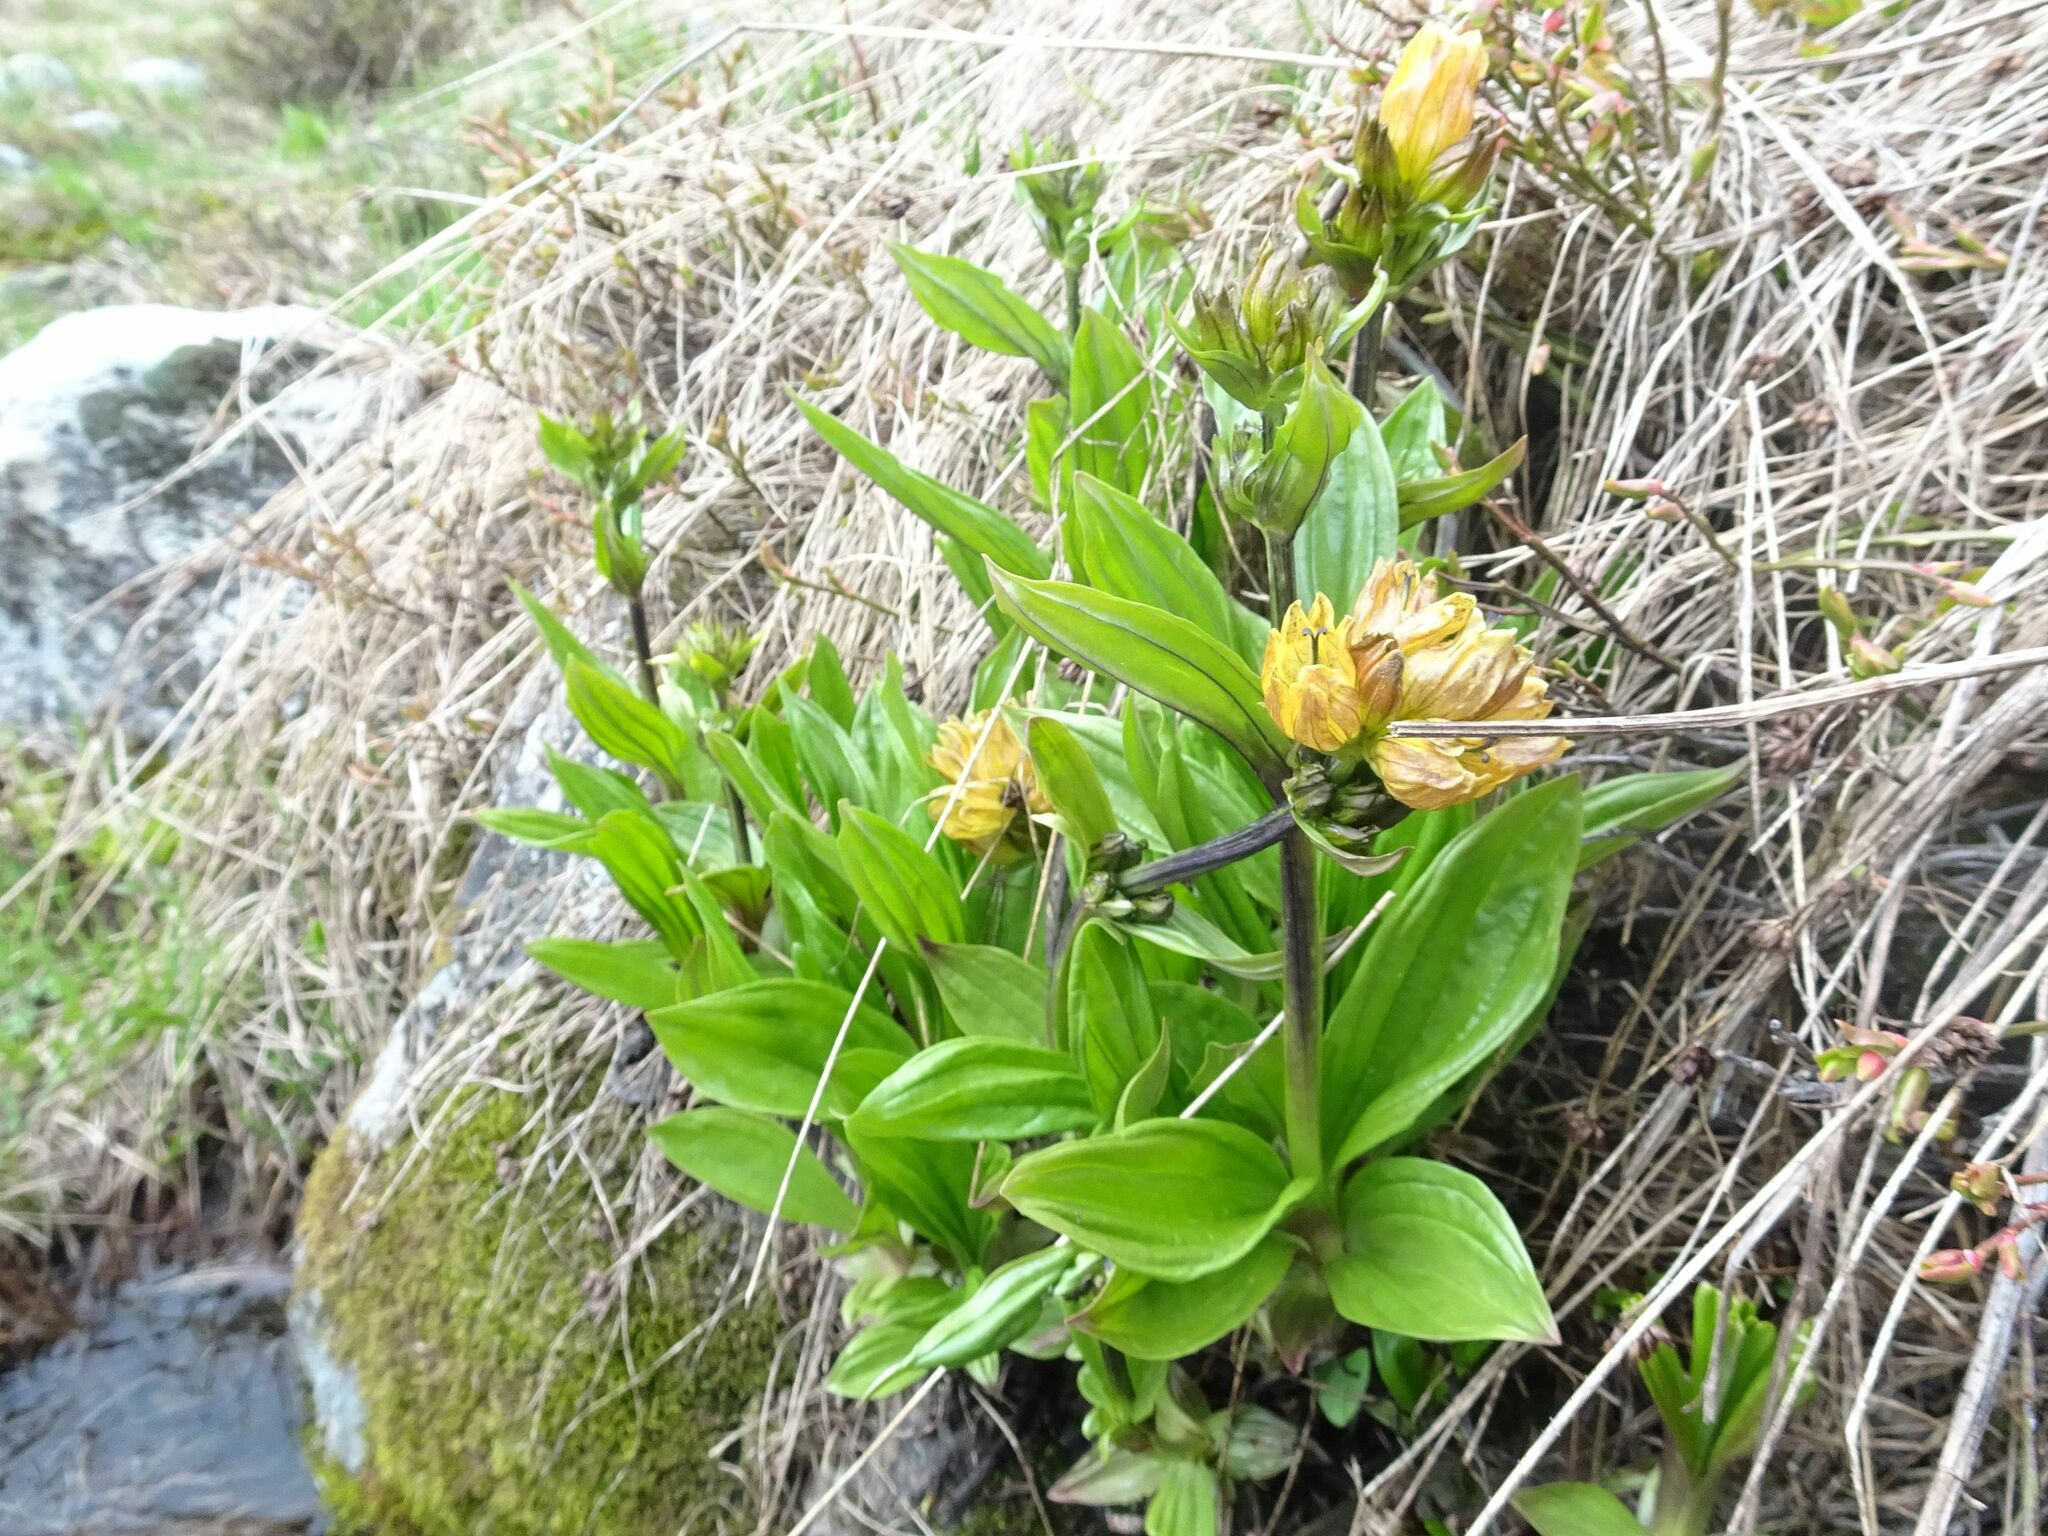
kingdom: Plantae
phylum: Tracheophyta
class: Magnoliopsida
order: Gentianales
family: Gentianaceae
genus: Gentiana
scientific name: Gentiana punctata
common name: Spotted gentian
